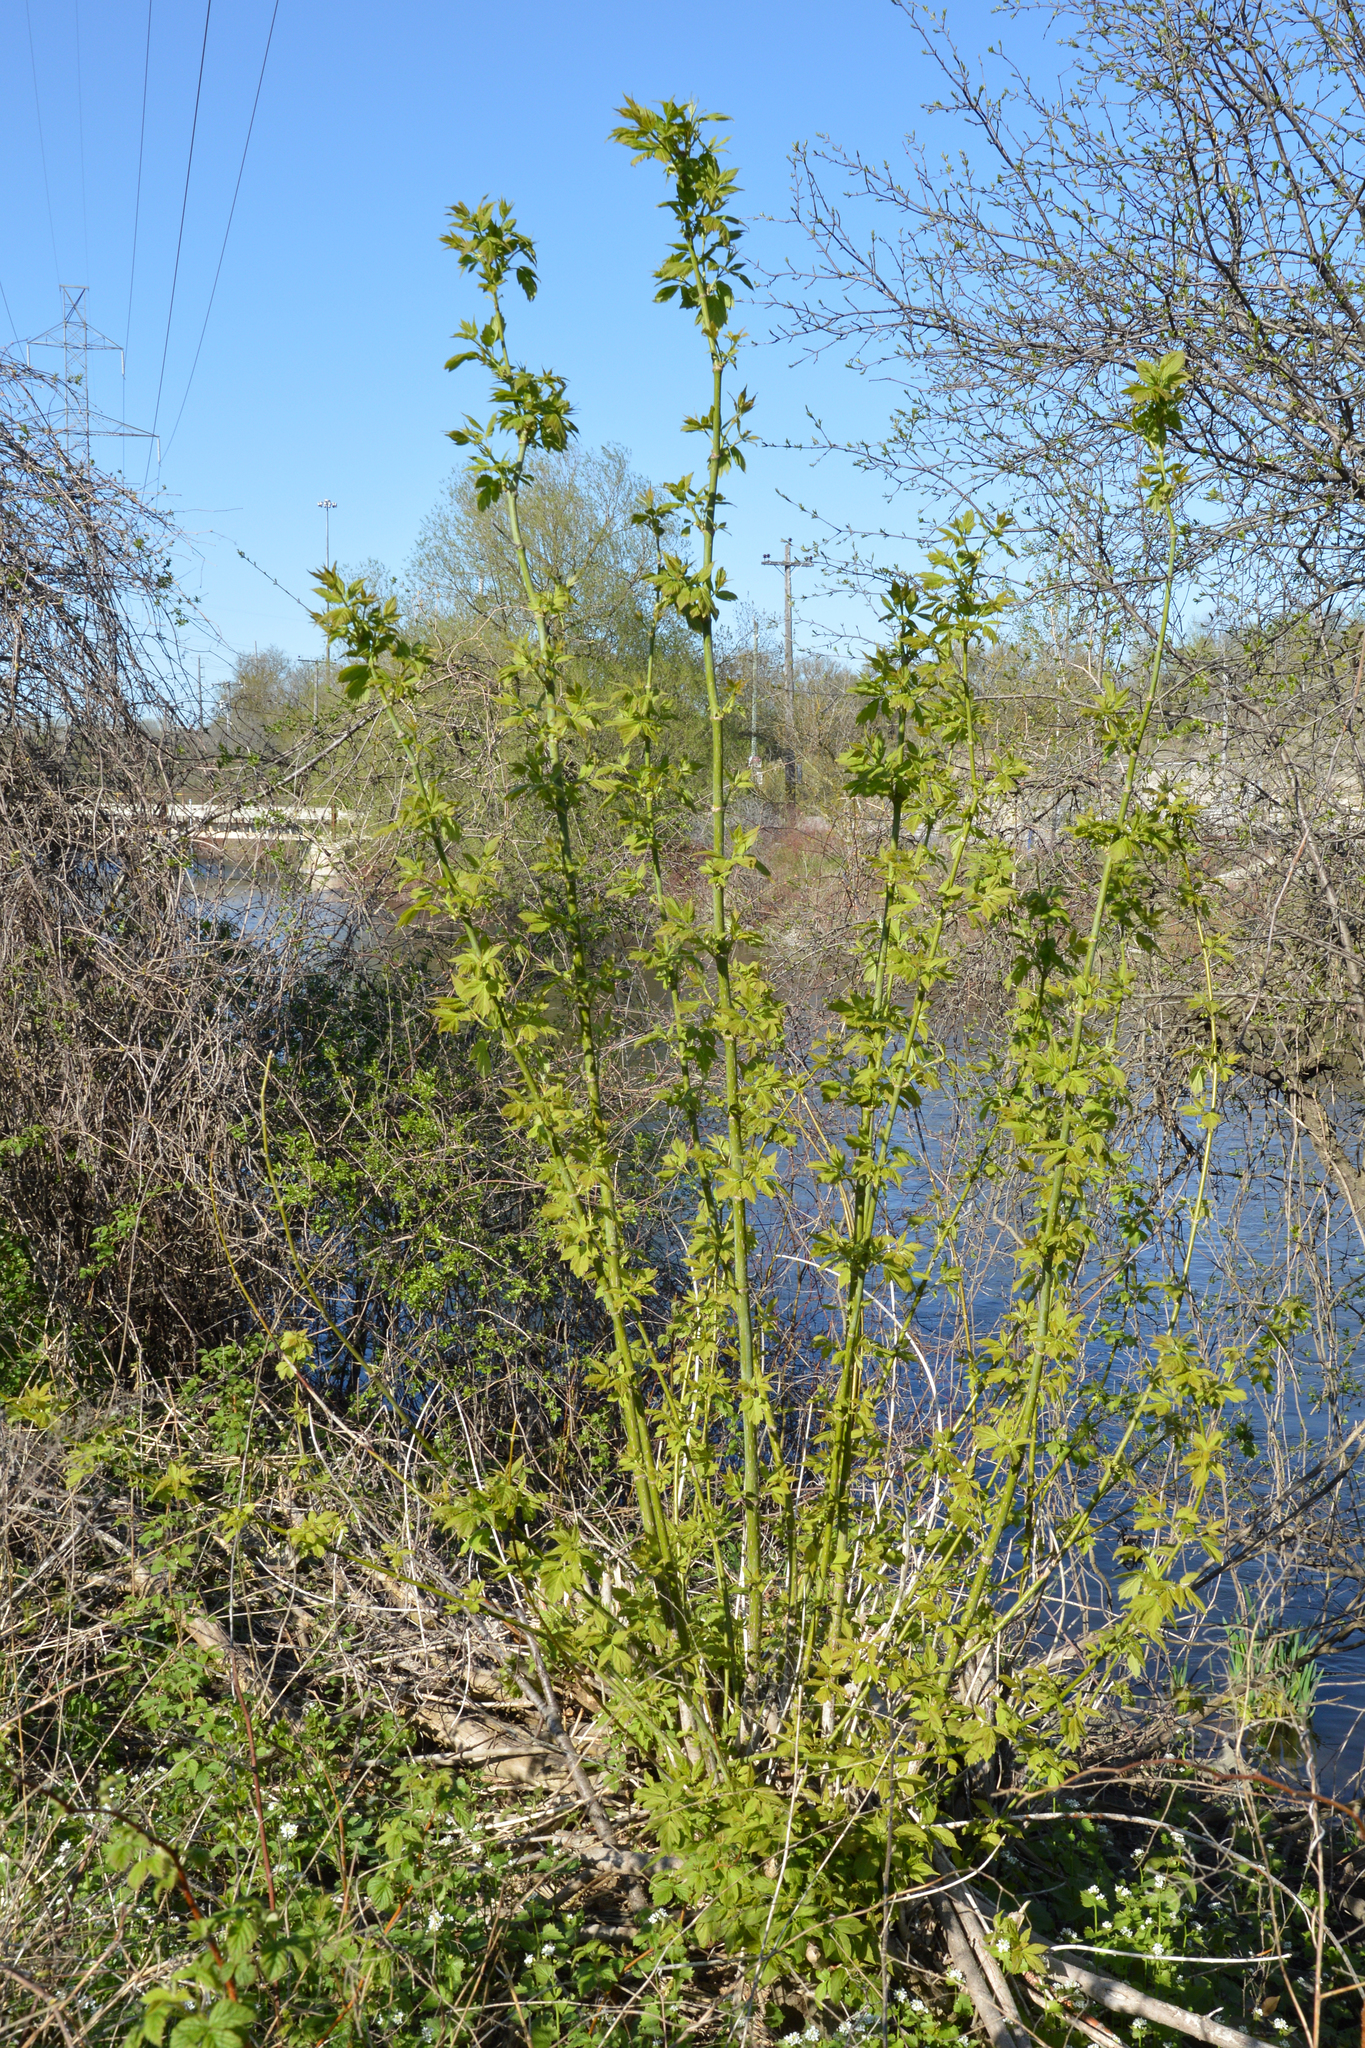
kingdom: Plantae
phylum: Tracheophyta
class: Magnoliopsida
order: Sapindales
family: Sapindaceae
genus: Acer
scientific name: Acer negundo
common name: Ashleaf maple
